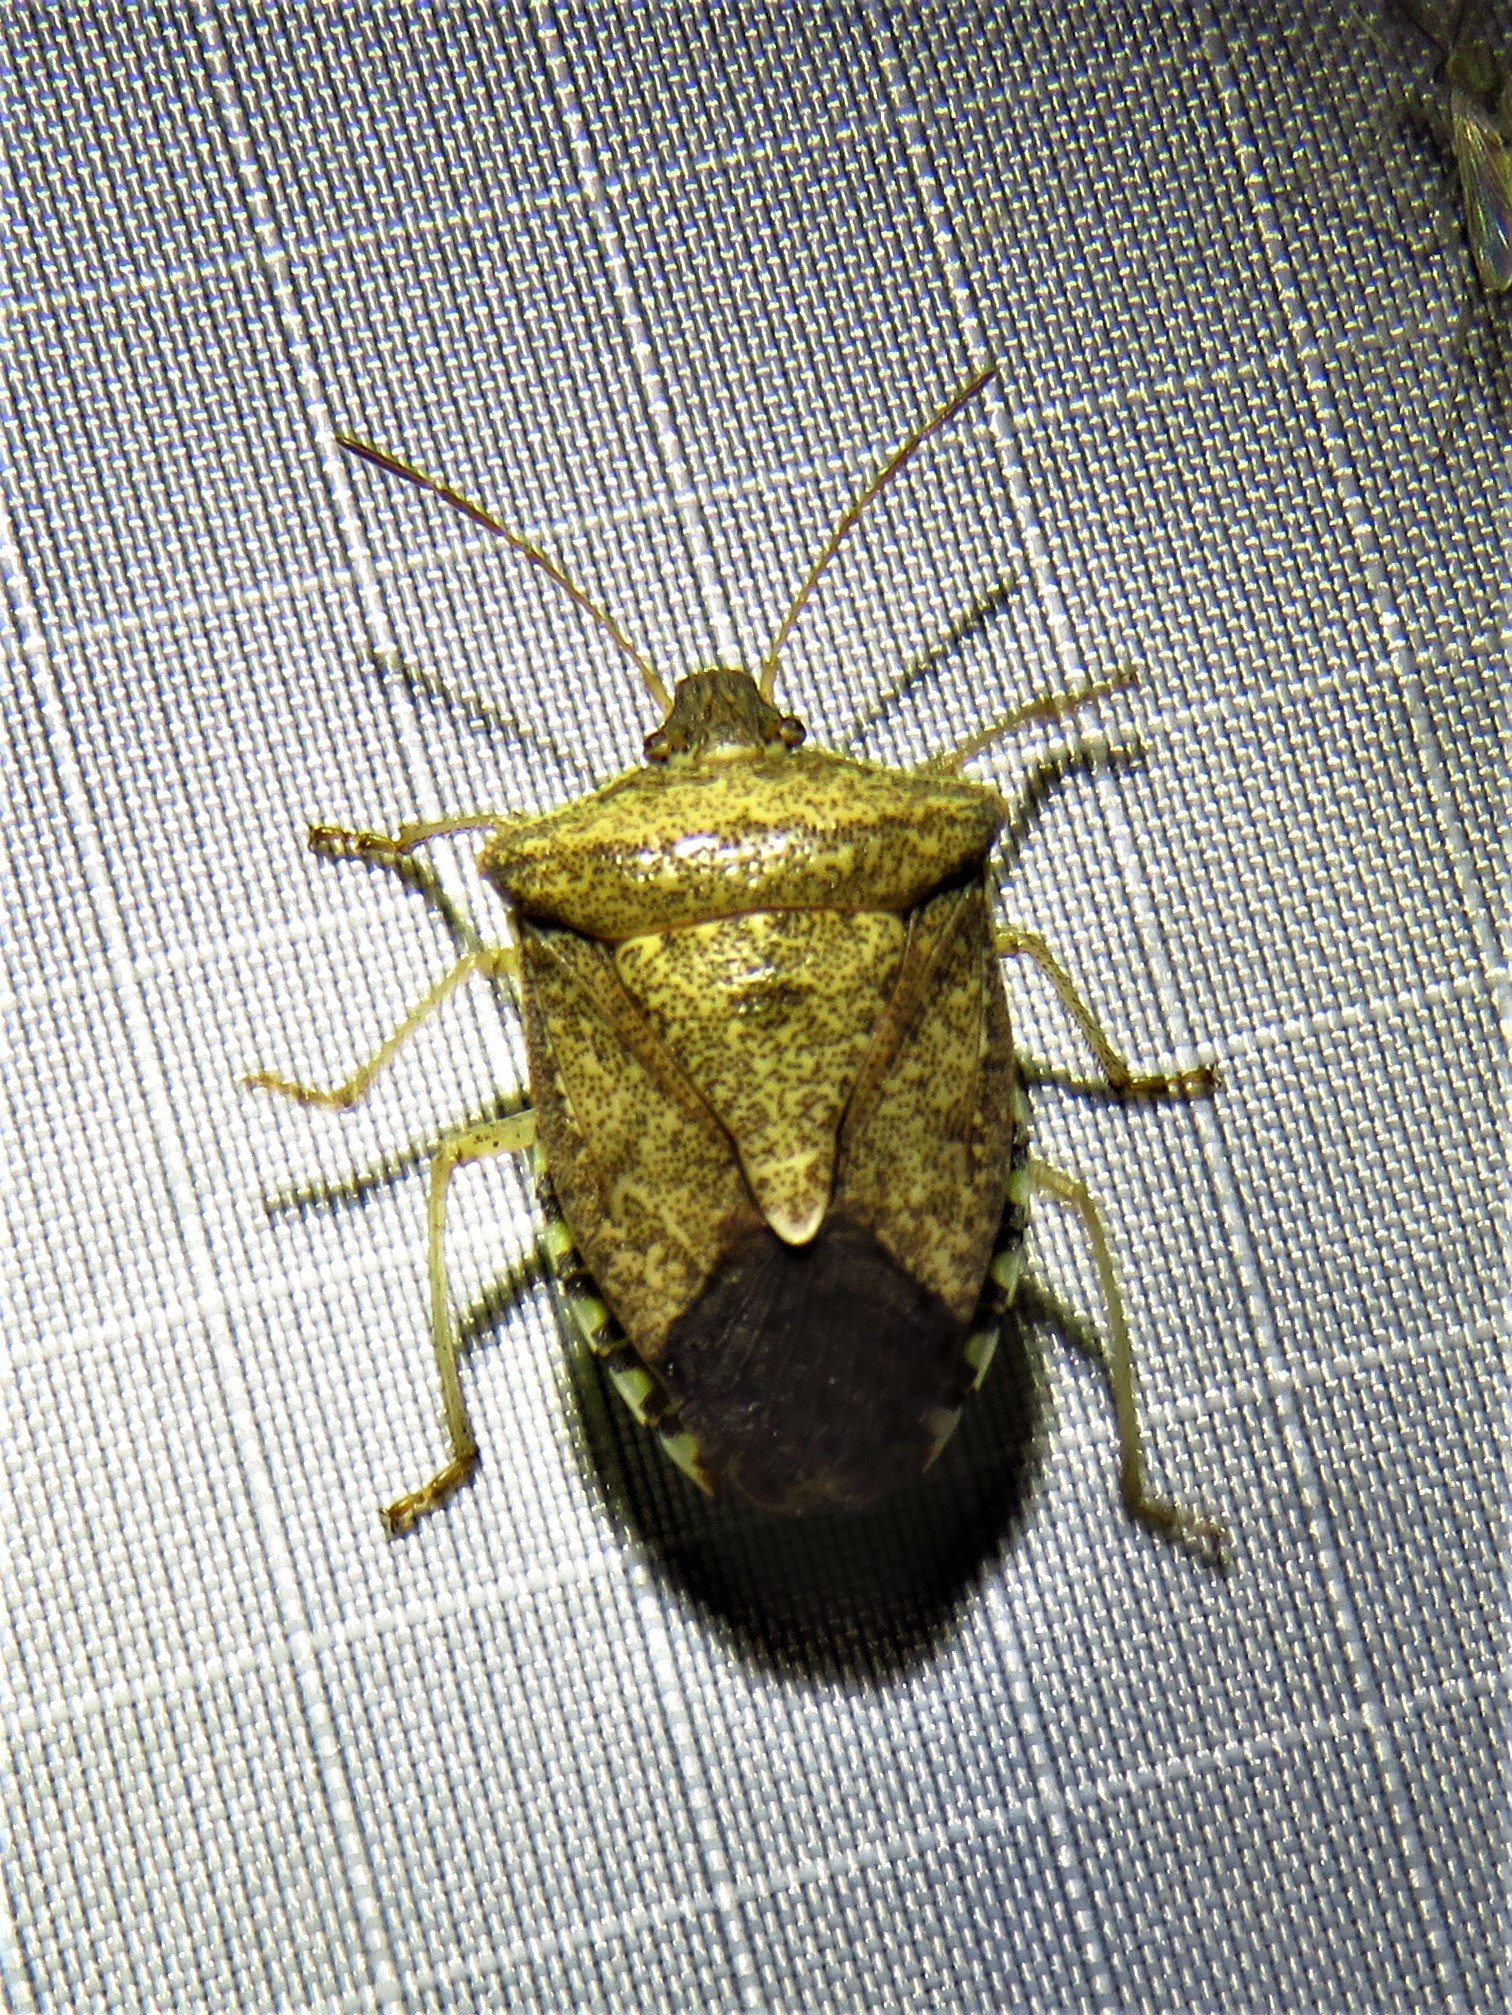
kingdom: Animalia
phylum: Arthropoda
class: Insecta
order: Hemiptera
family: Pentatomidae
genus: Euschistus
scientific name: Euschistus tristigmus
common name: Dusky stink bug
